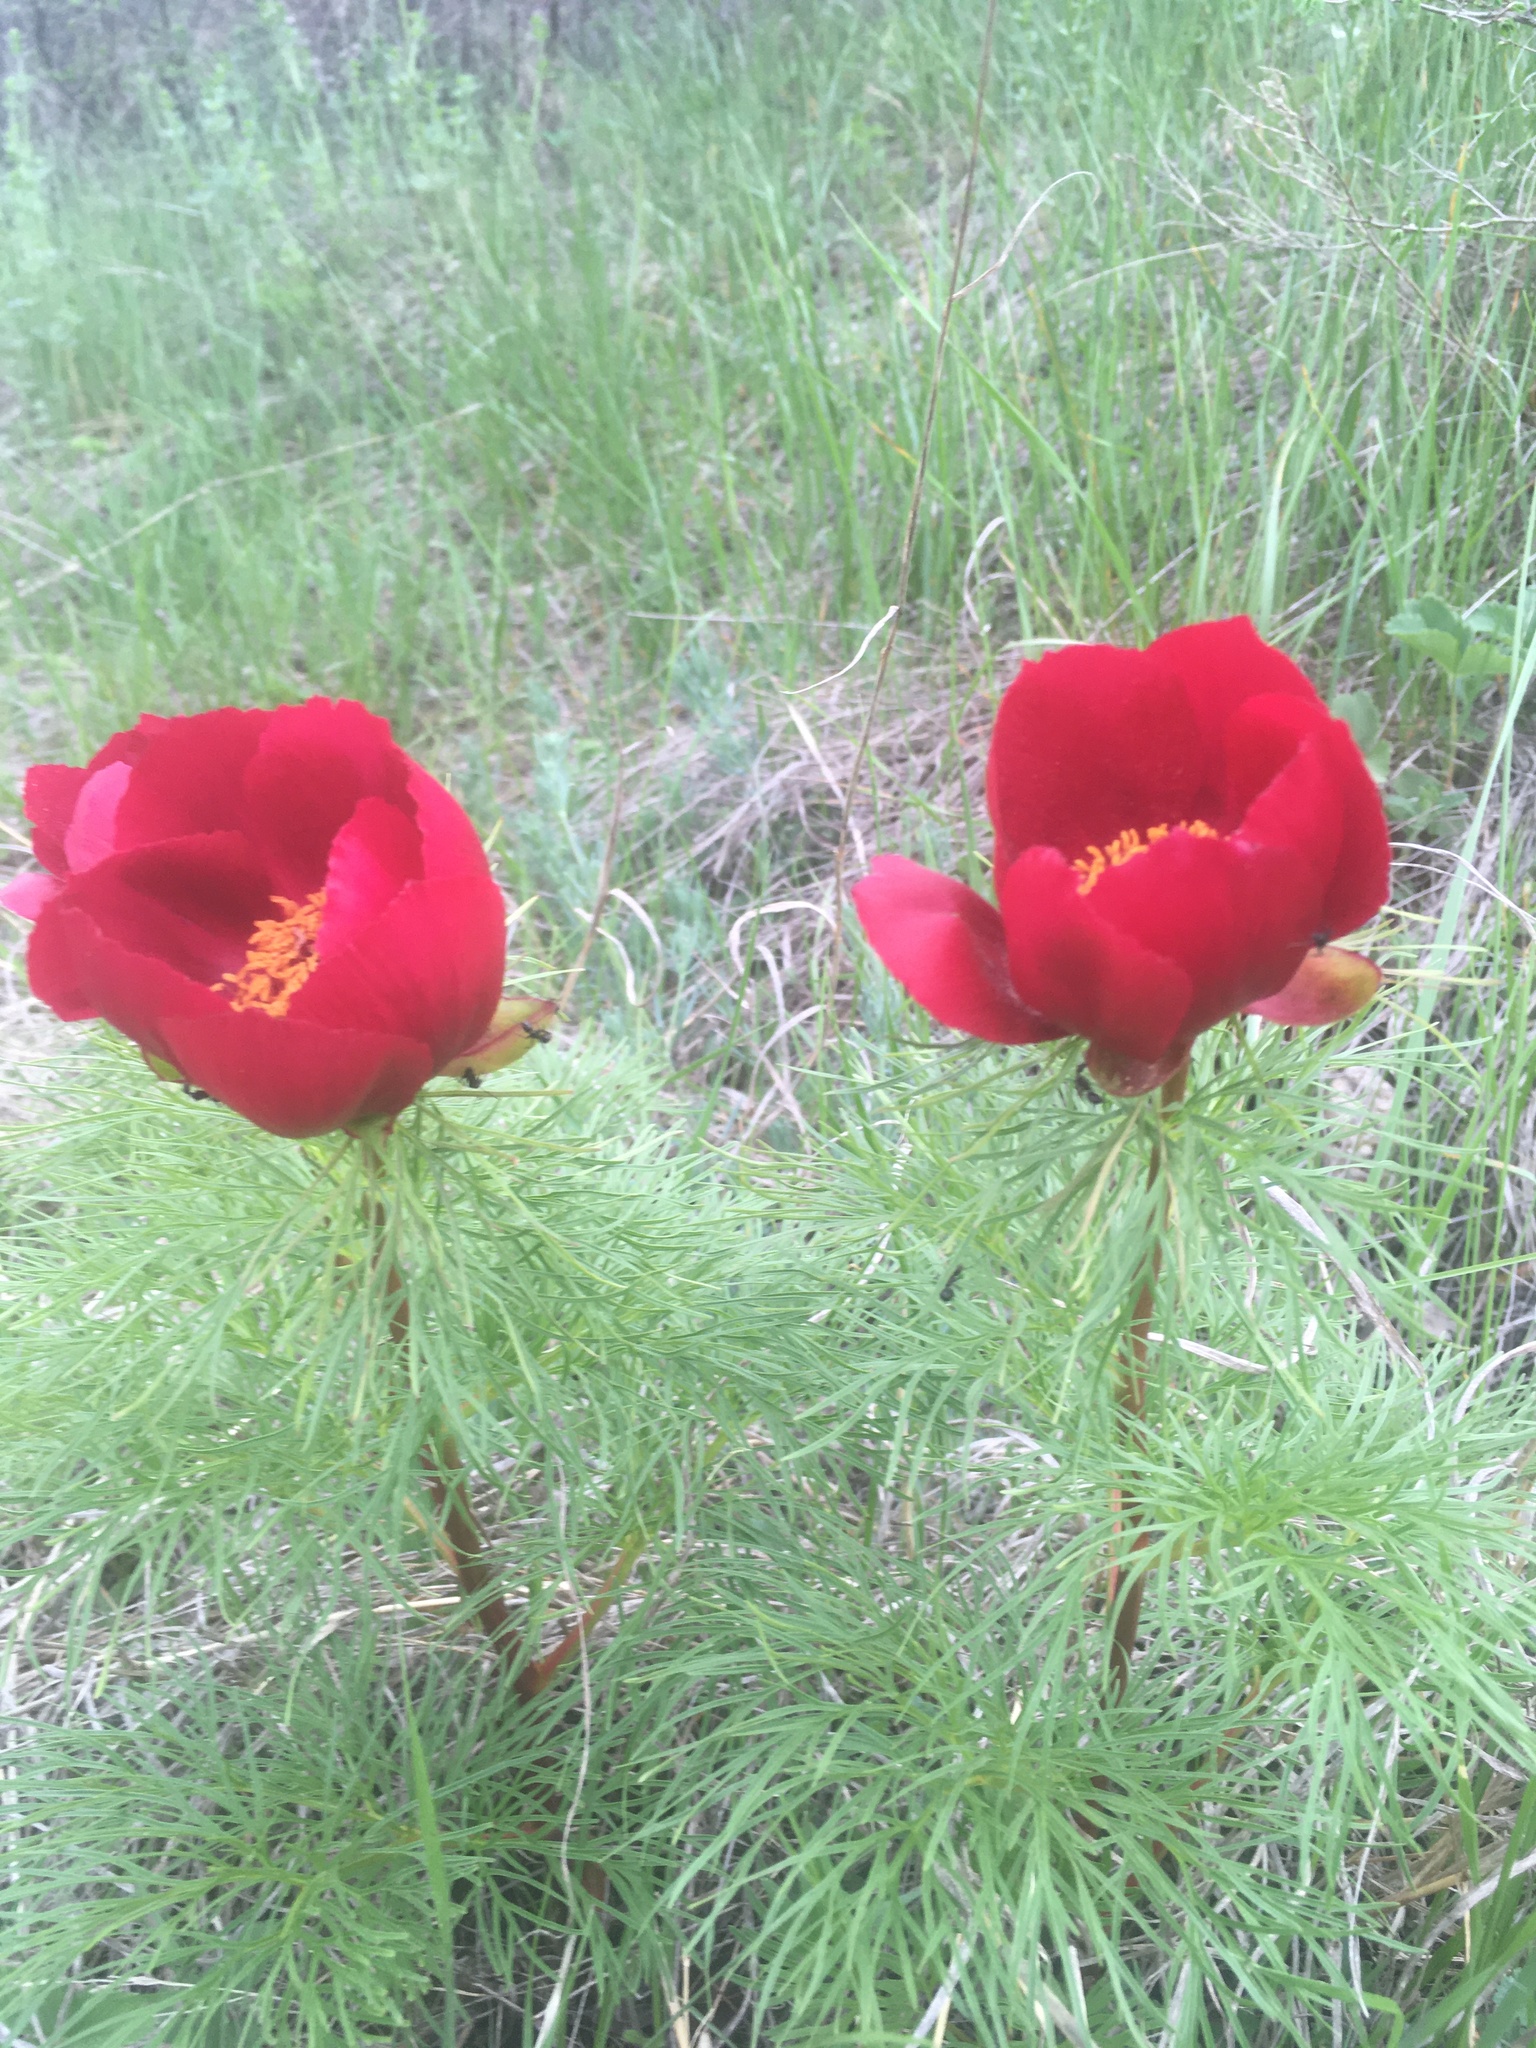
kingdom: Plantae
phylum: Tracheophyta
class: Magnoliopsida
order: Saxifragales
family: Paeoniaceae
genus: Paeonia
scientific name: Paeonia tenuifolia
